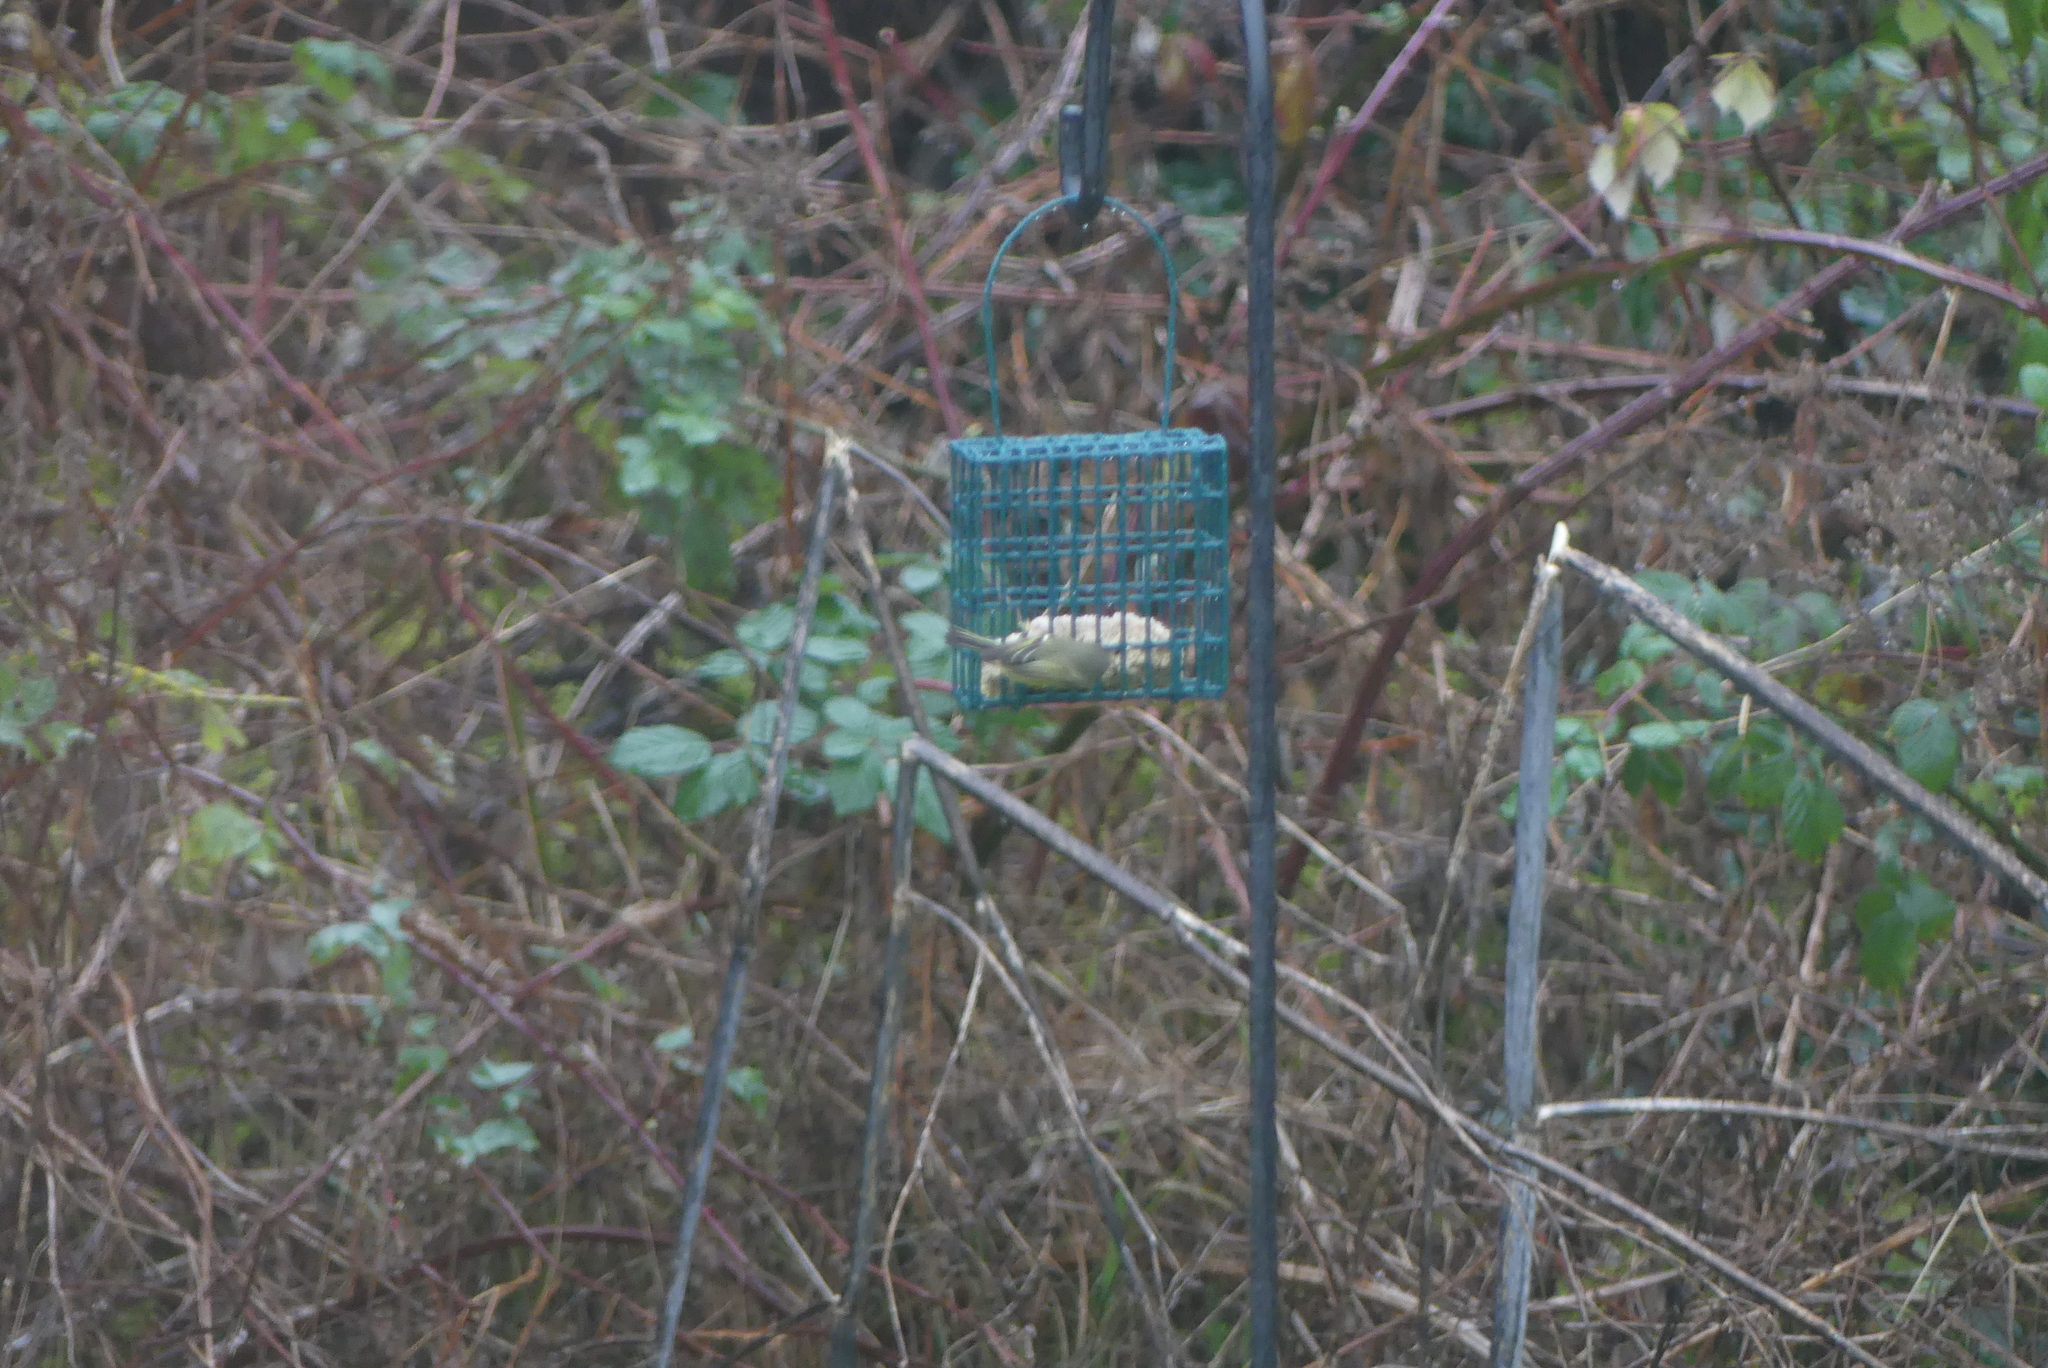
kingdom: Animalia
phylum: Chordata
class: Aves
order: Passeriformes
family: Regulidae
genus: Regulus
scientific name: Regulus calendula
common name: Ruby-crowned kinglet
